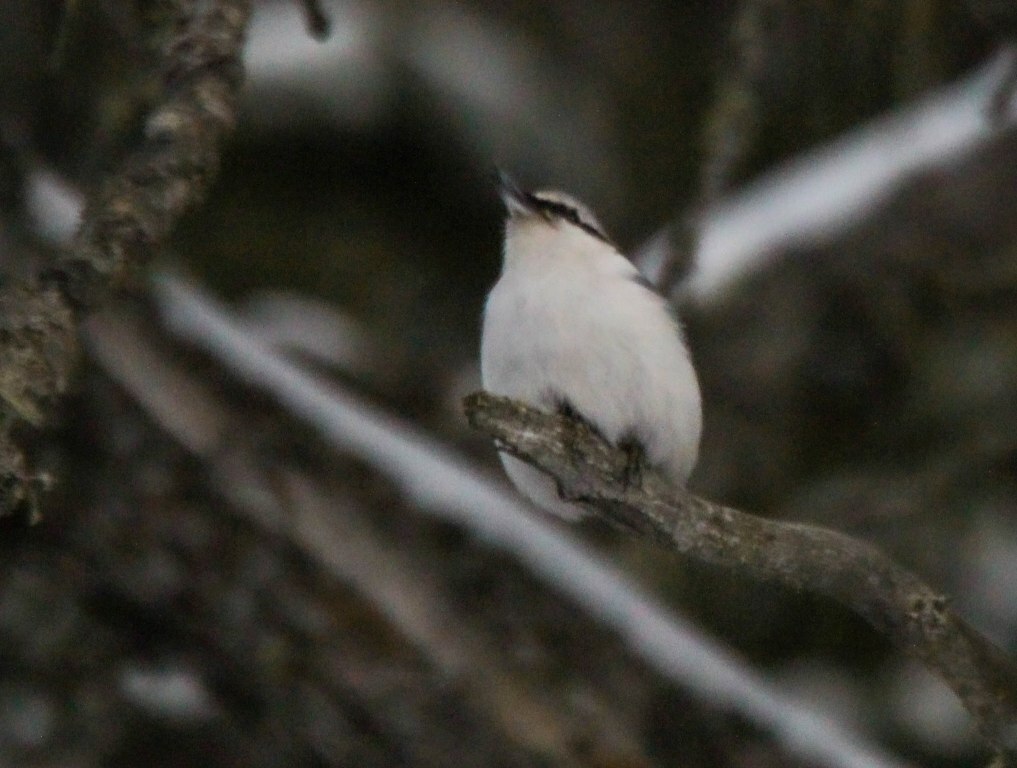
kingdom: Animalia
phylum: Chordata
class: Aves
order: Passeriformes
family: Sittidae
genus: Sitta
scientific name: Sitta europaea
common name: Eurasian nuthatch
